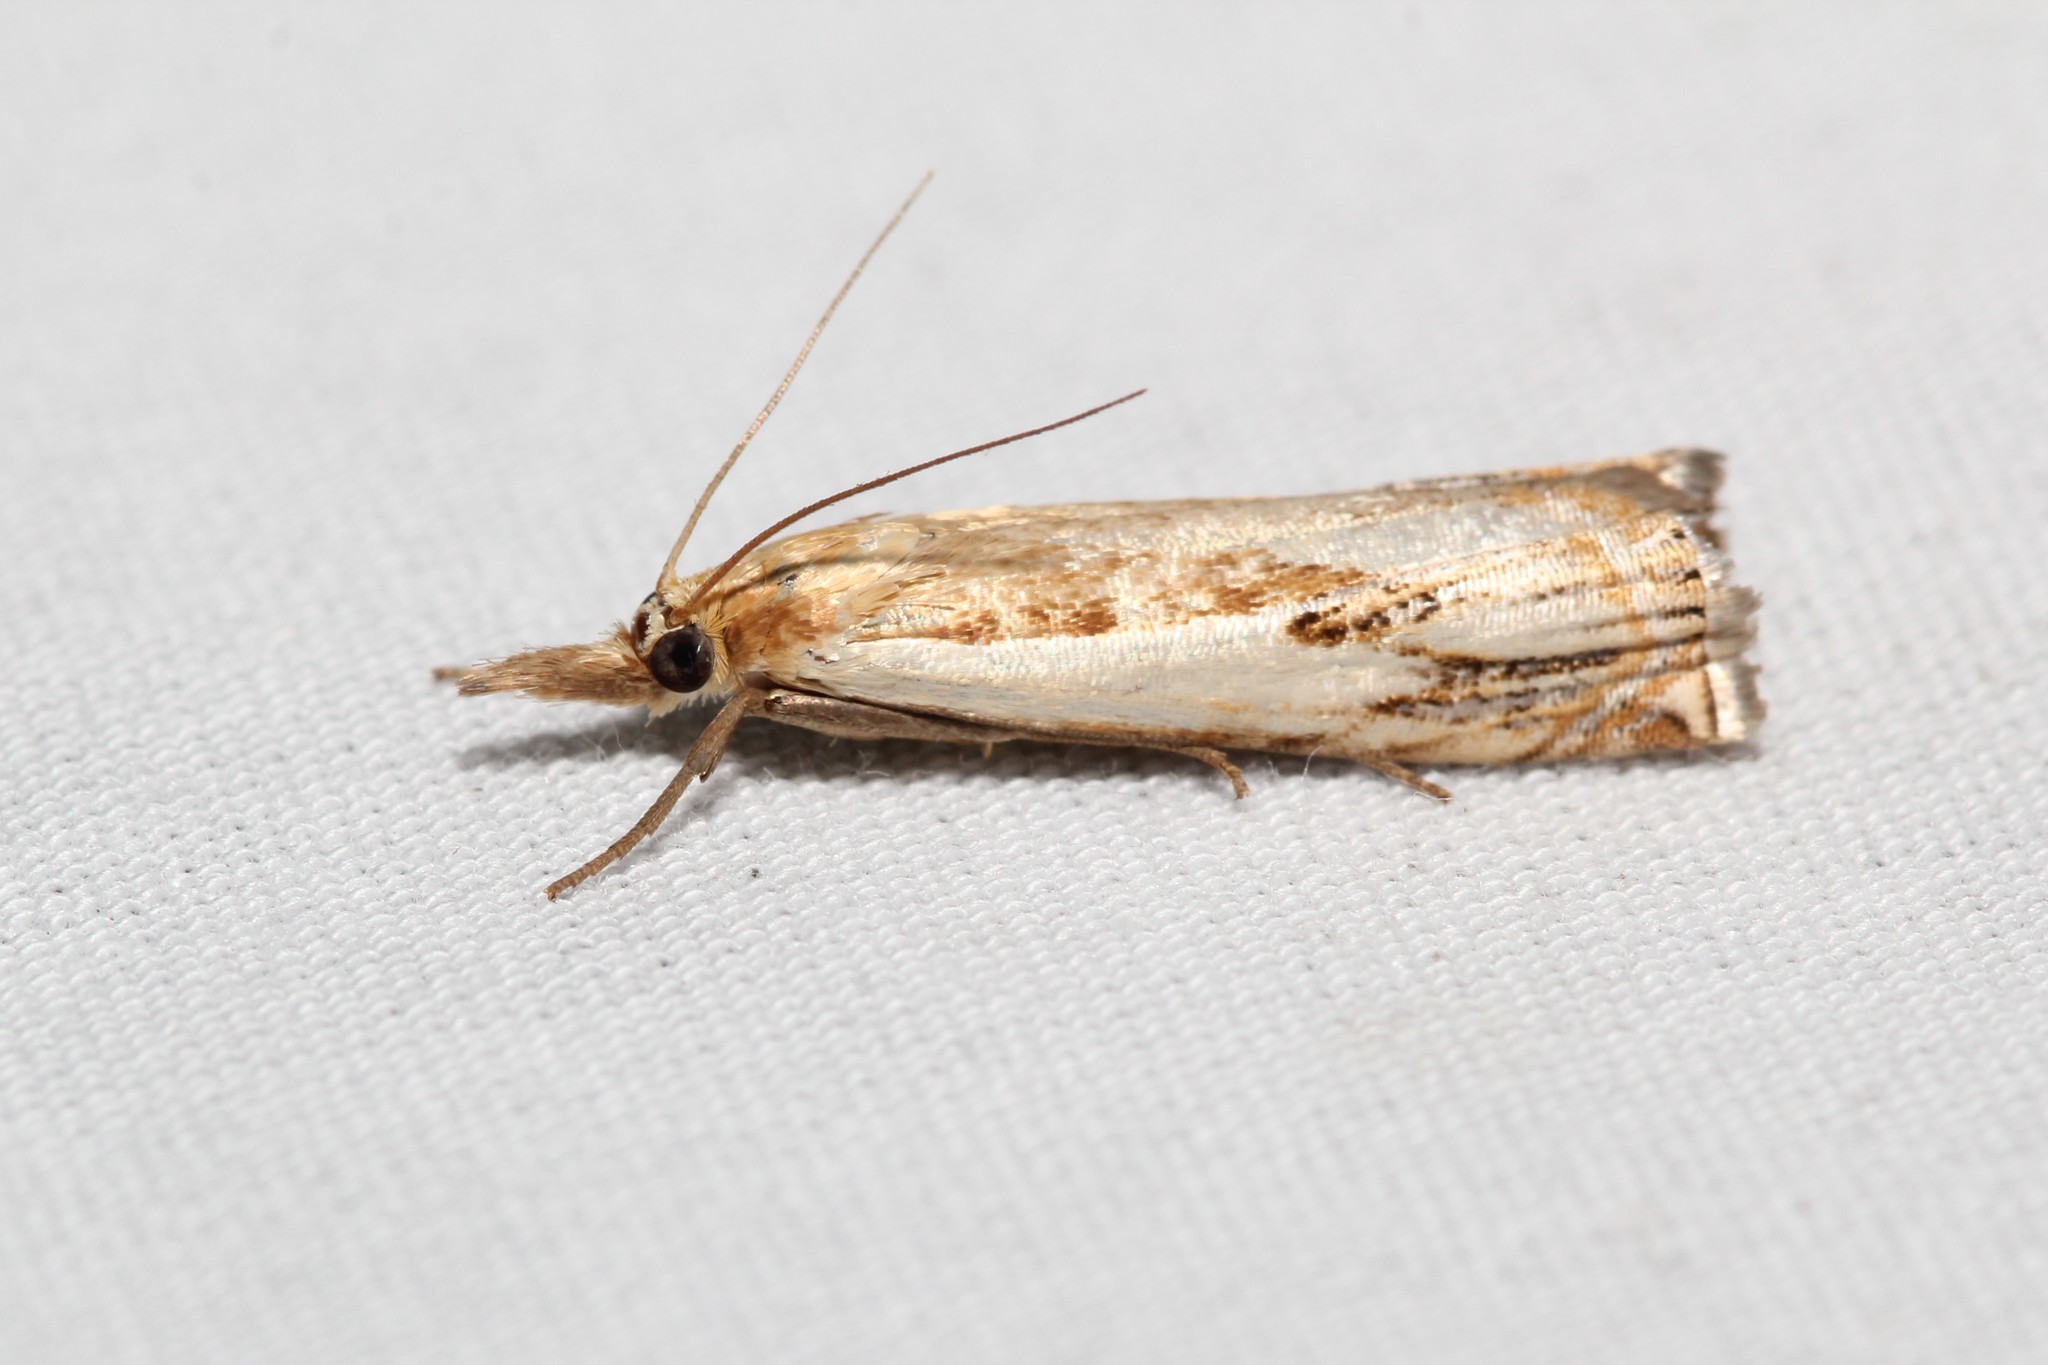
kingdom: Animalia
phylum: Arthropoda
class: Insecta
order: Lepidoptera
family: Crambidae
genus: Crambus
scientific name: Crambus agitatellus
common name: Double-banded grass-veneer
